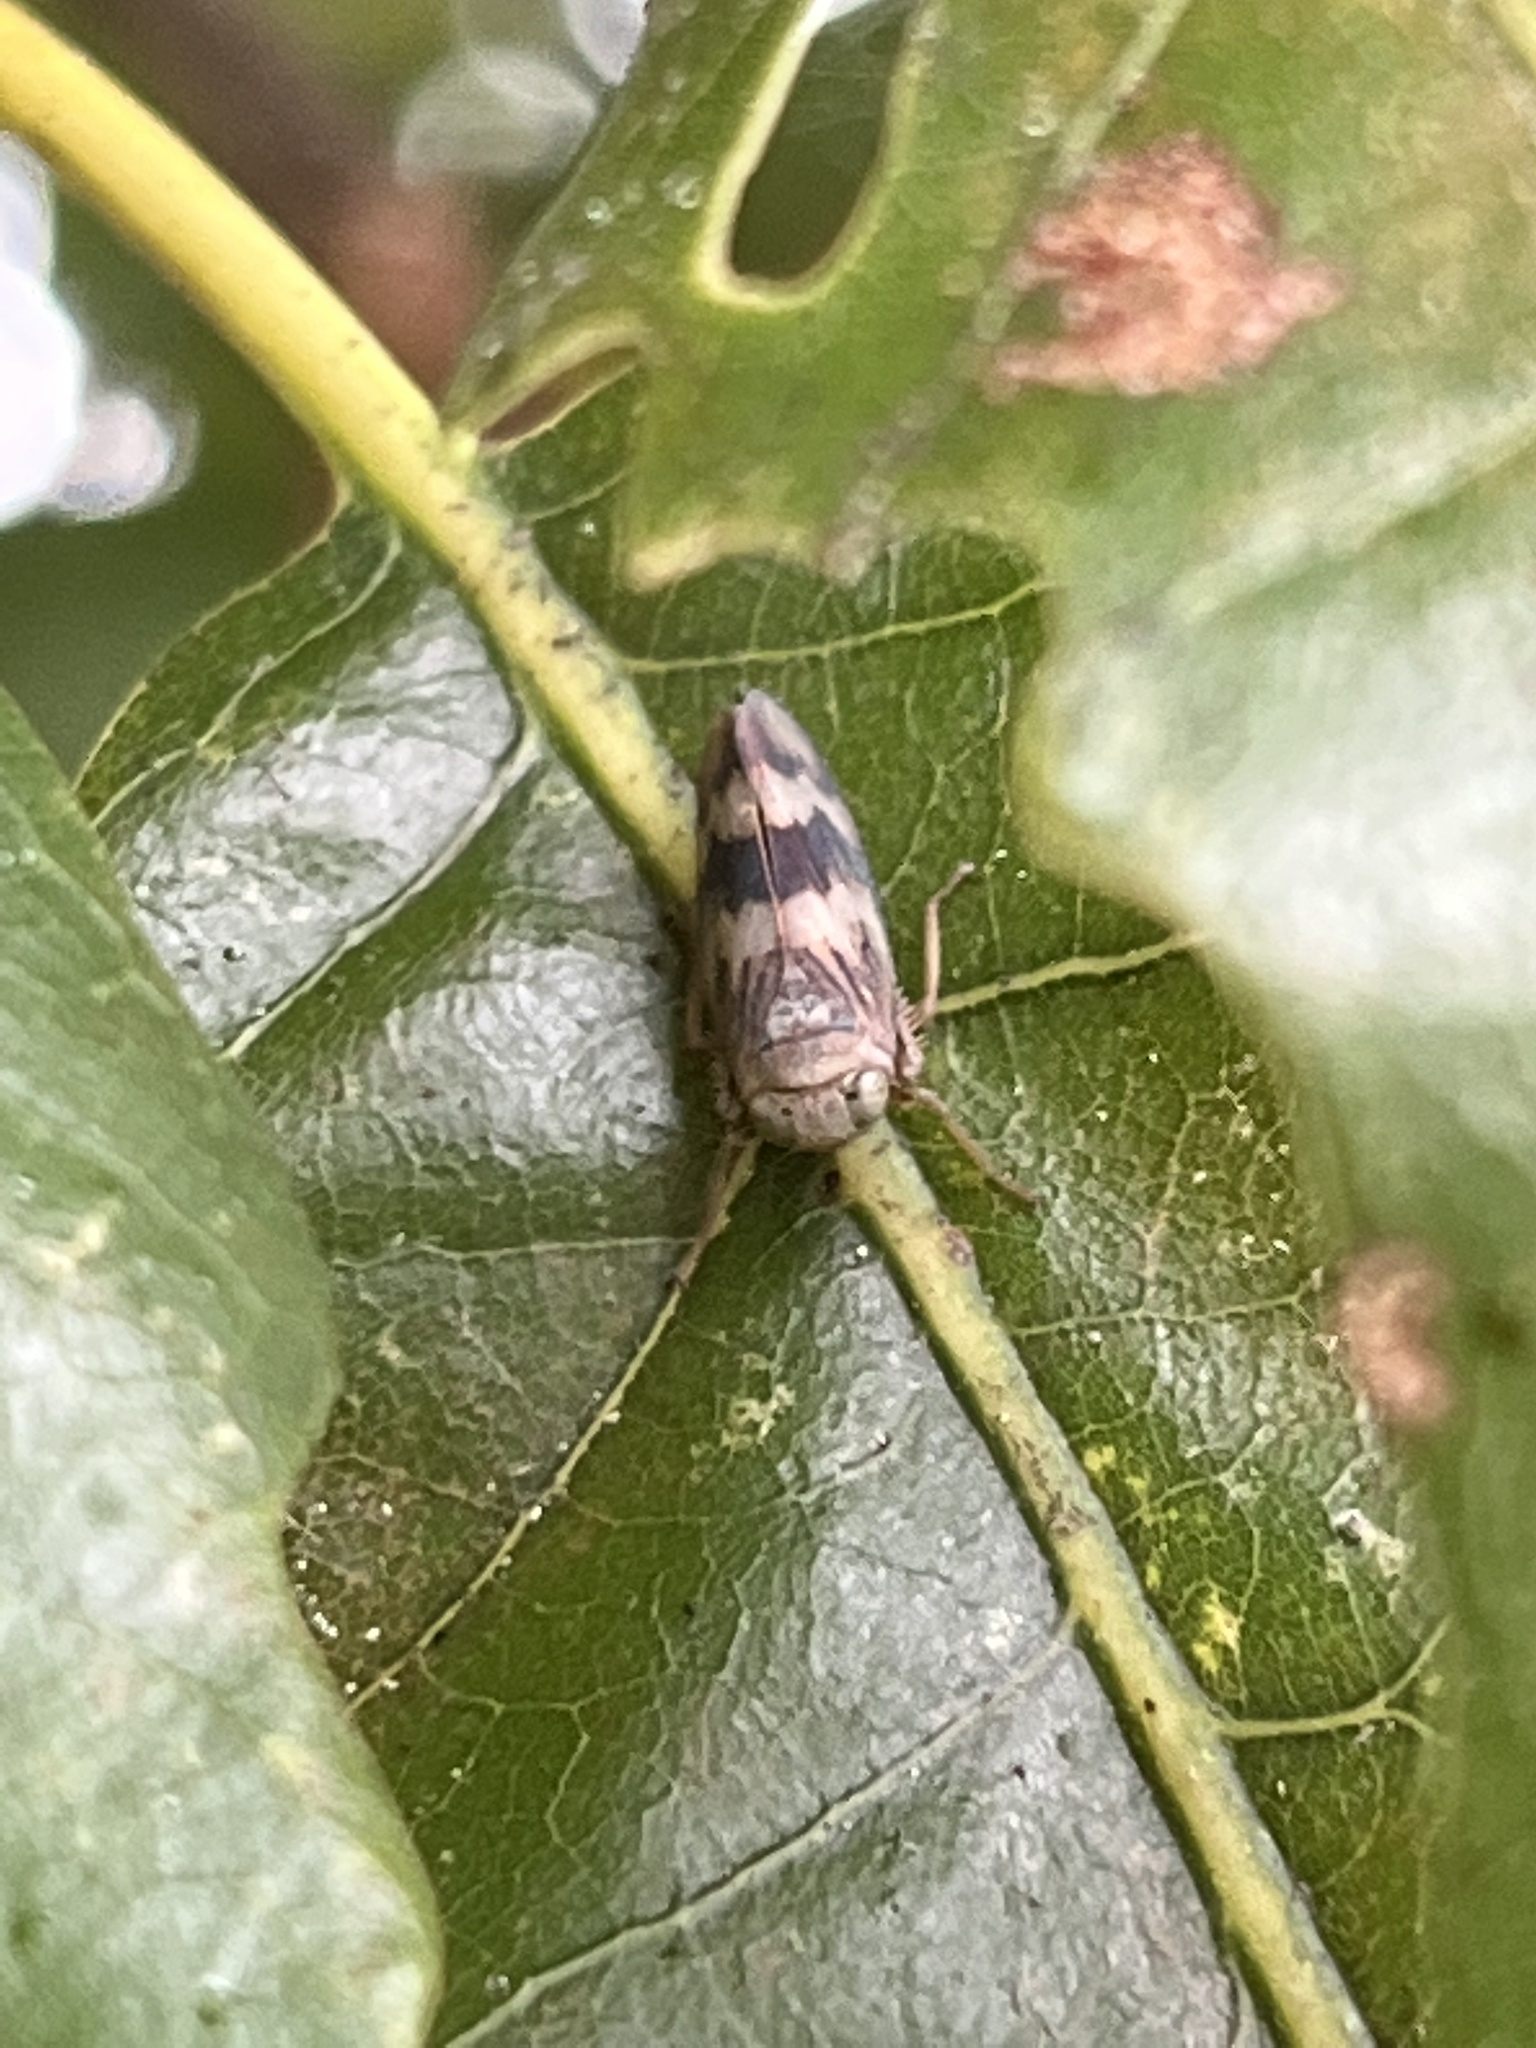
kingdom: Animalia
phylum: Arthropoda
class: Insecta
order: Hemiptera
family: Cicadellidae
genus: Jikradia
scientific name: Jikradia olitoria
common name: Coppery leafhopper
